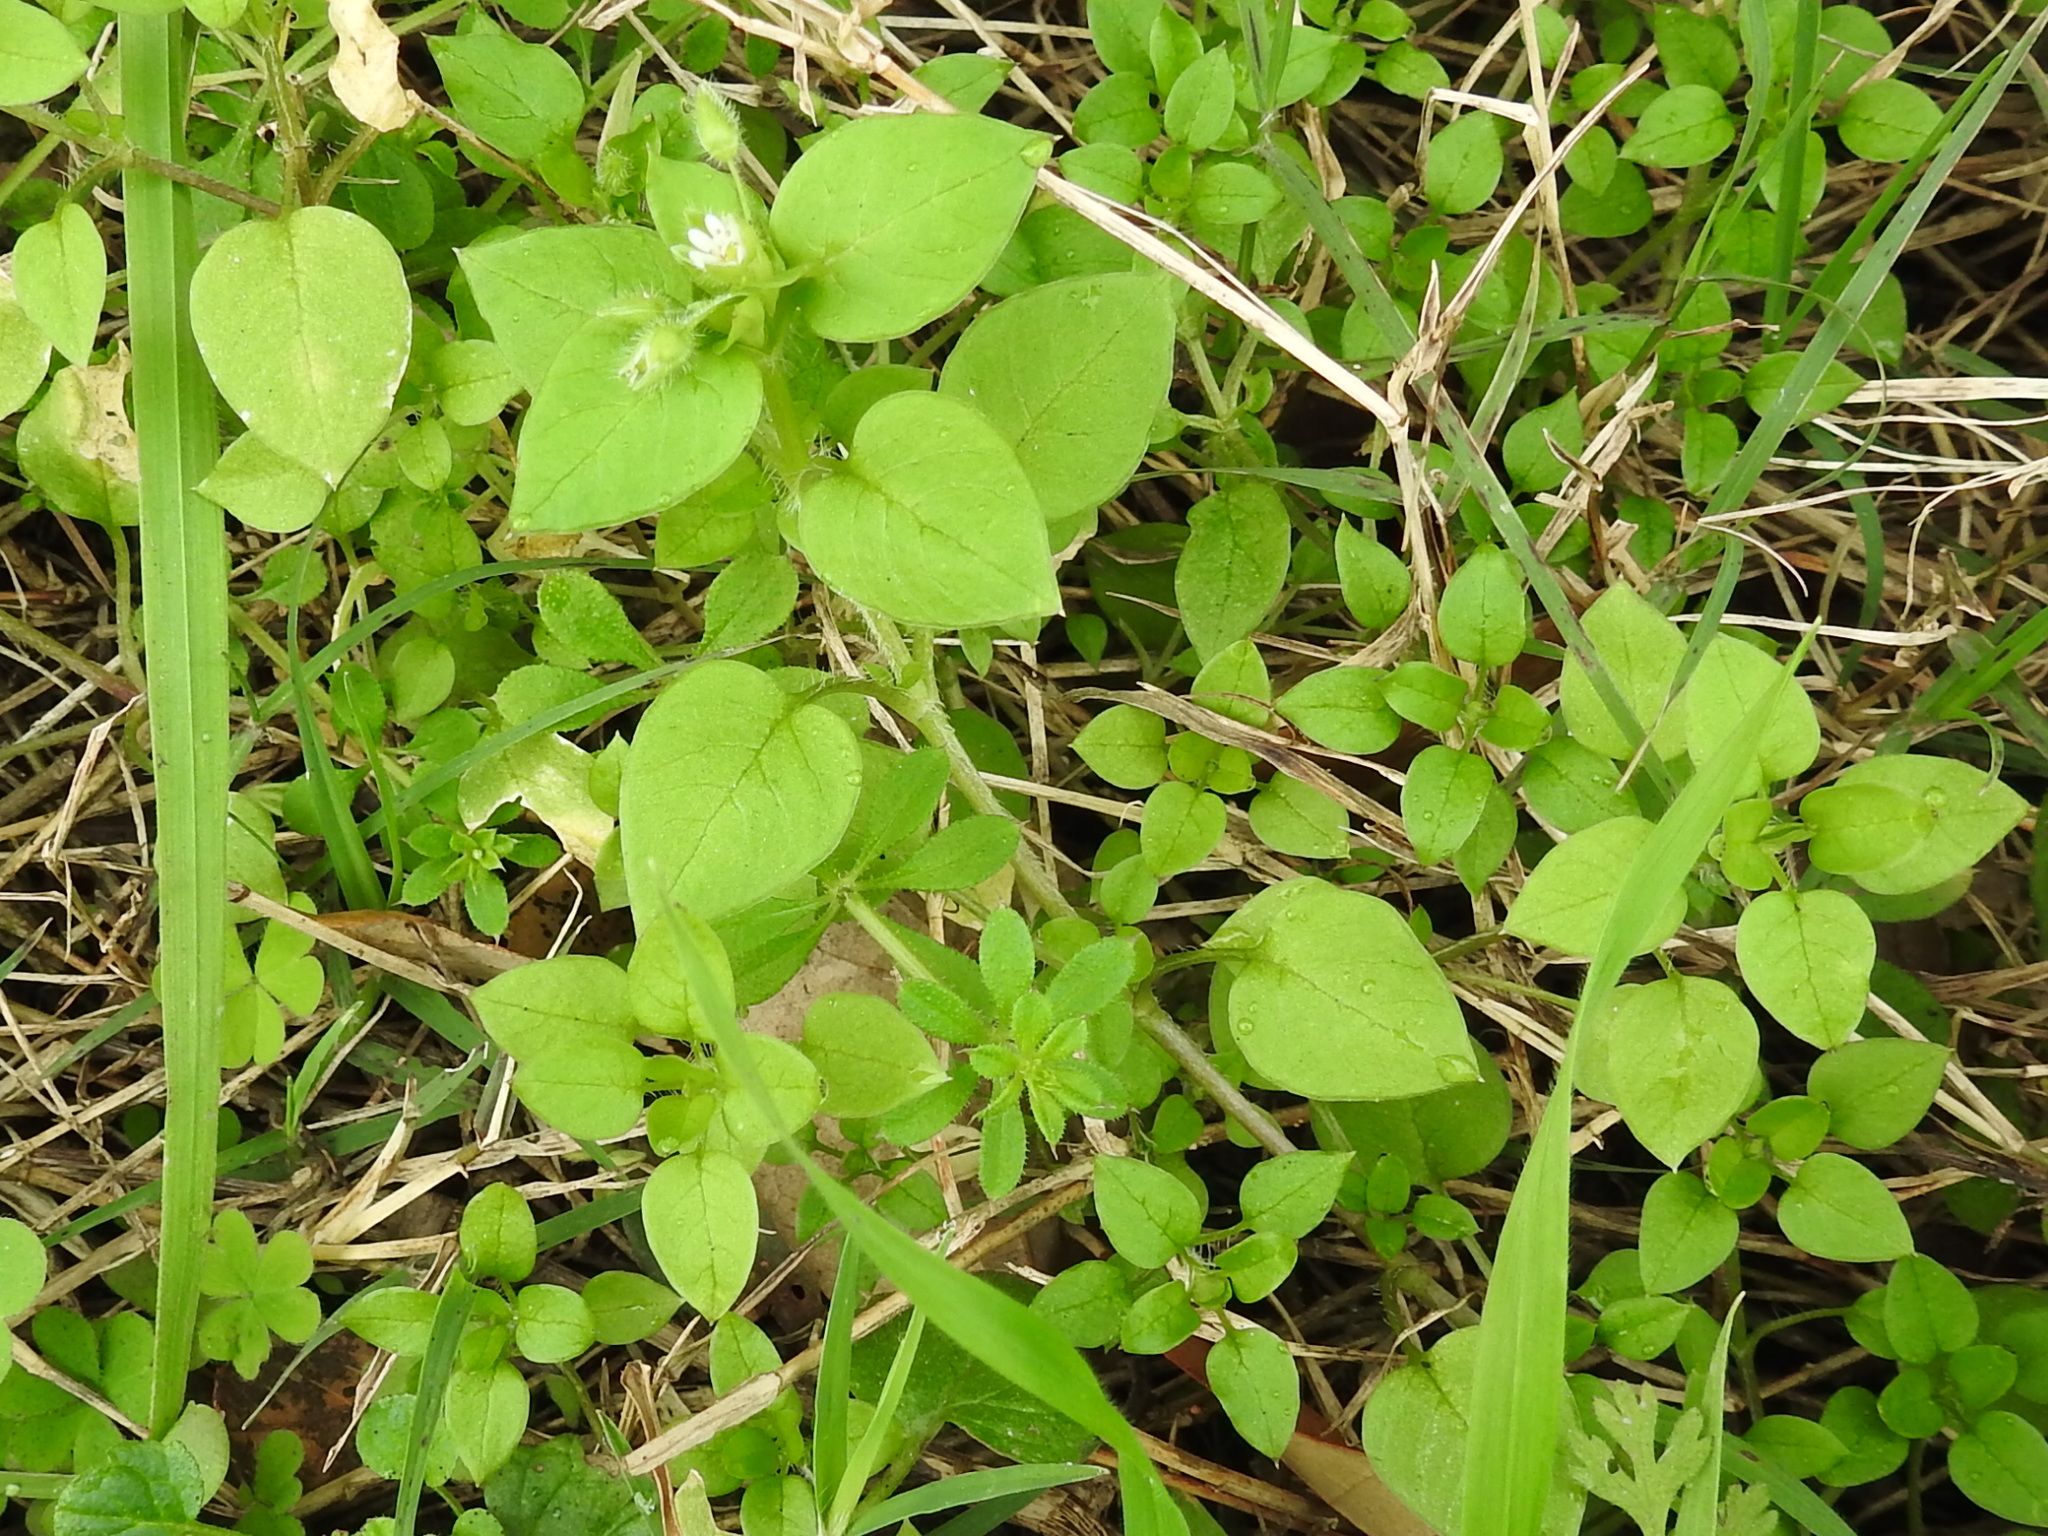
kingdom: Plantae
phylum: Tracheophyta
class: Magnoliopsida
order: Caryophyllales
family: Caryophyllaceae
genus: Stellaria
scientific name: Stellaria media
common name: Common chickweed
